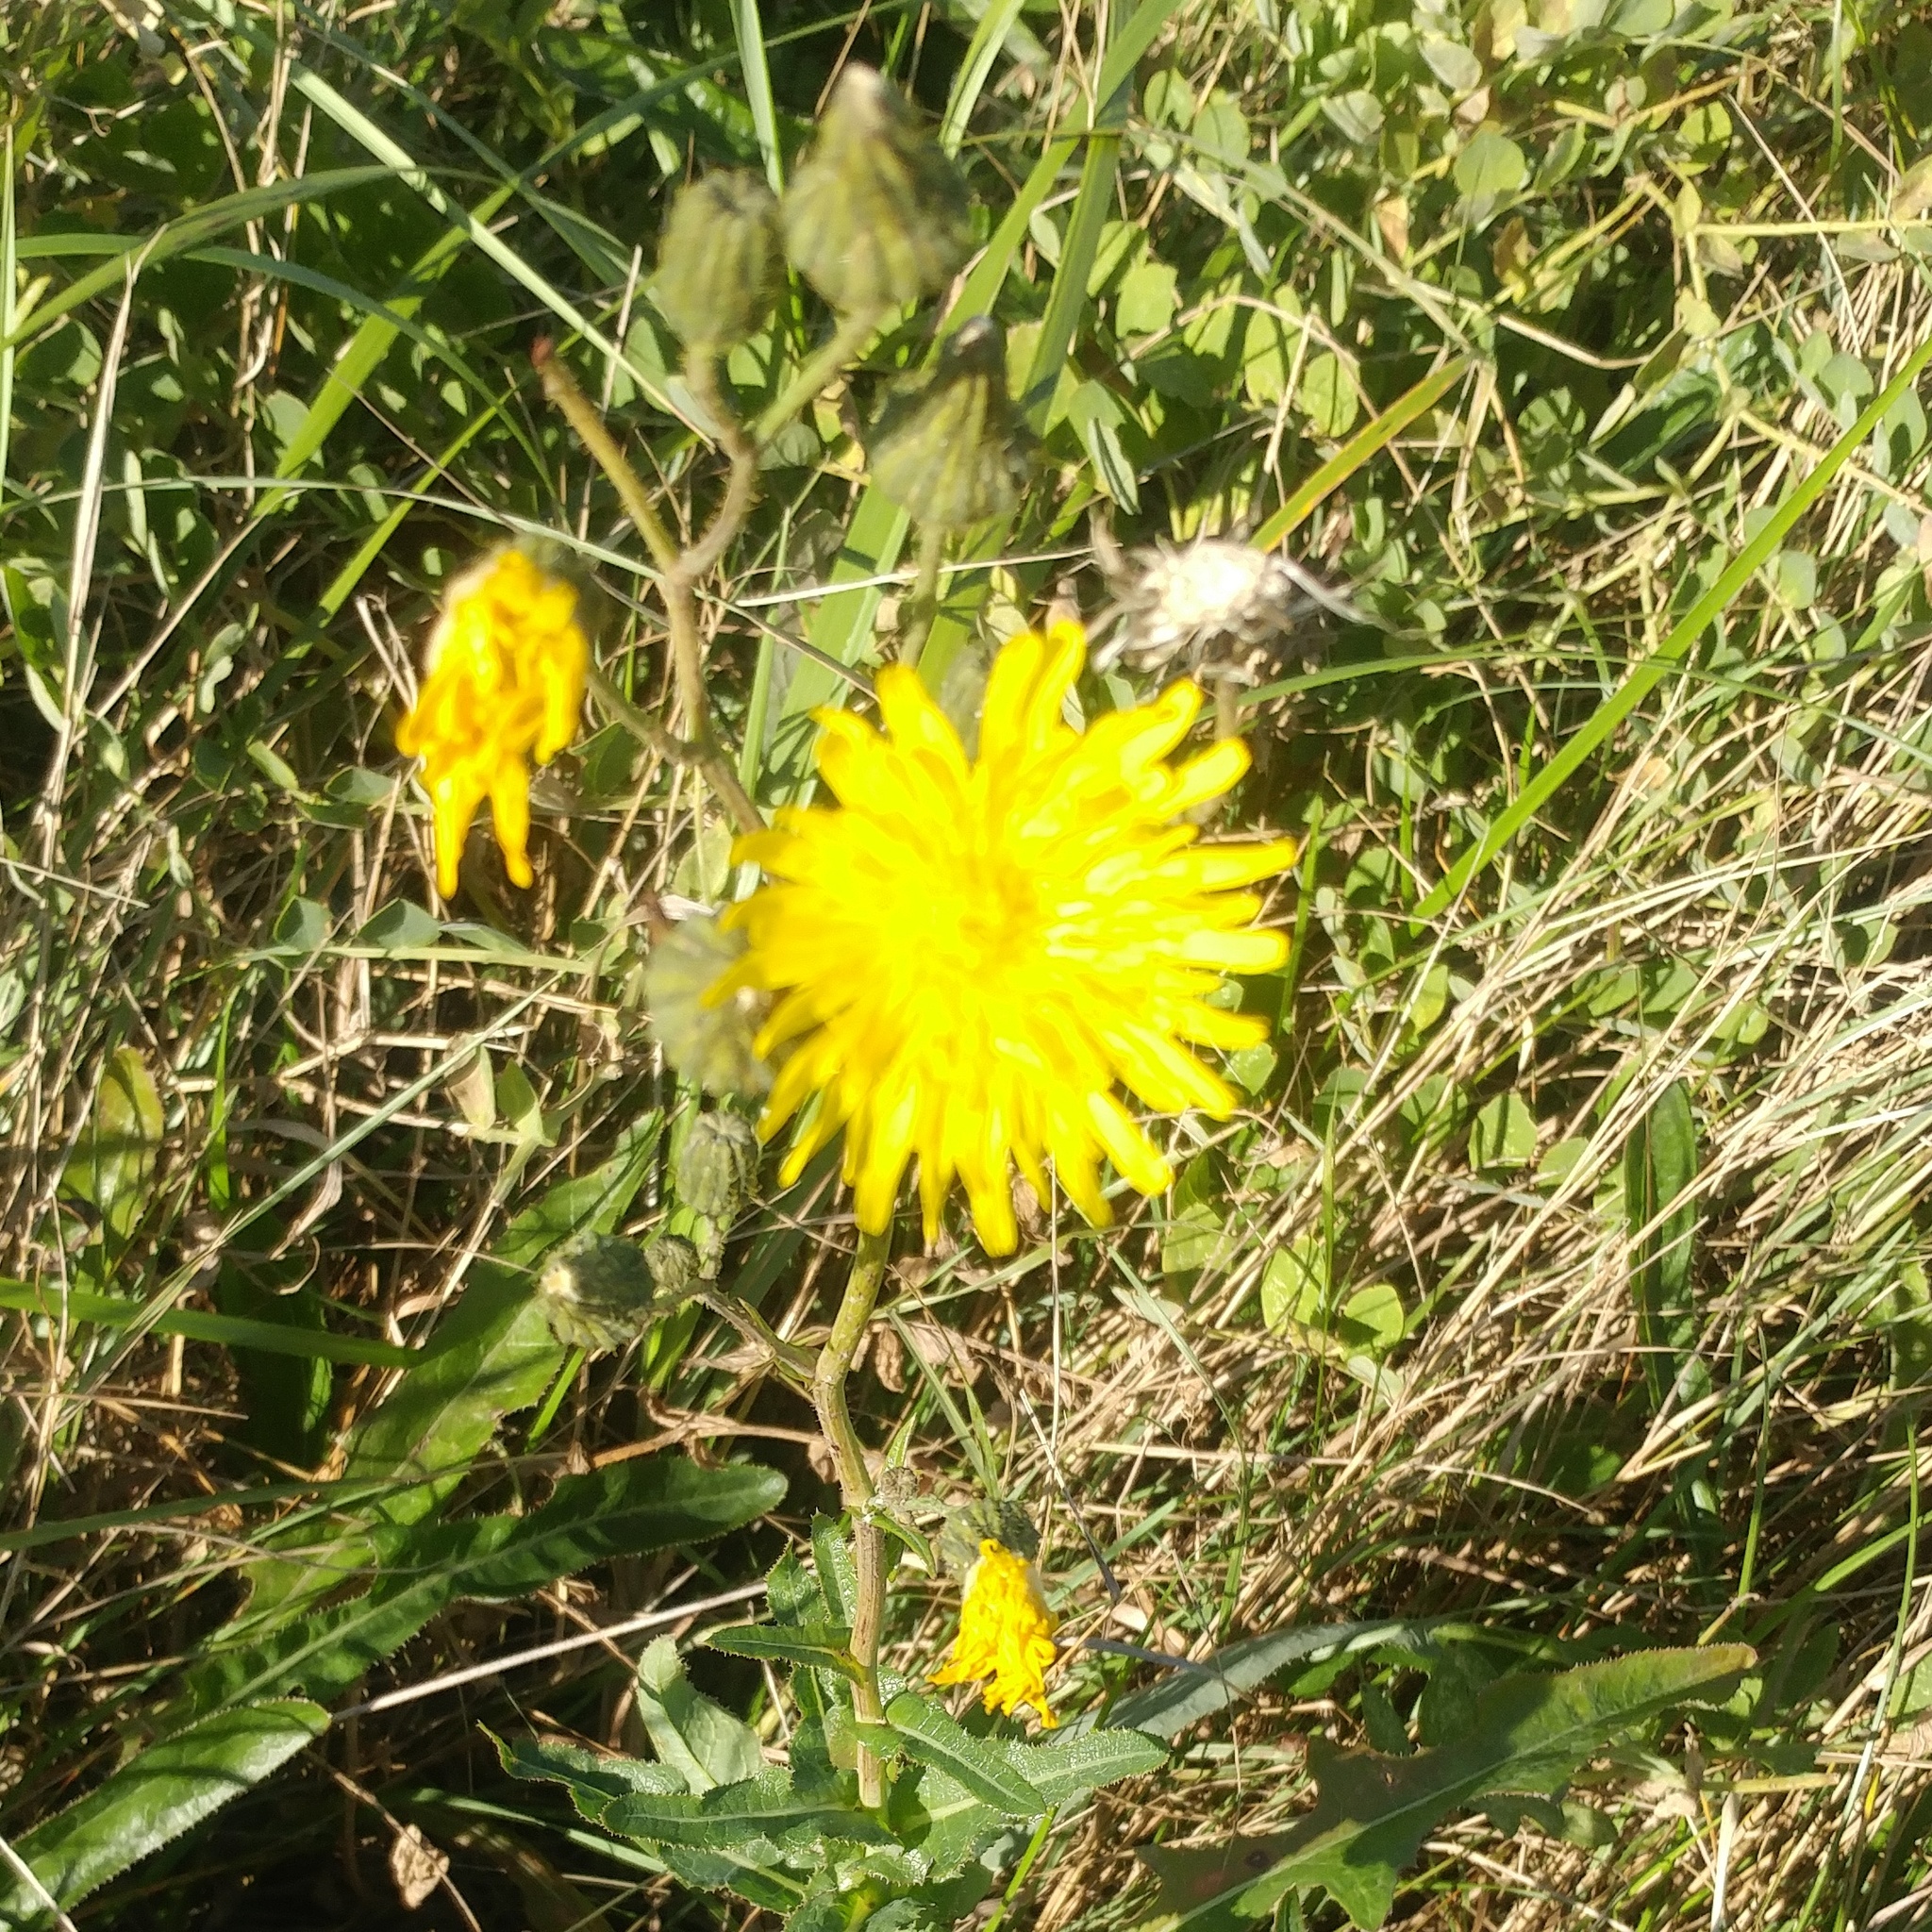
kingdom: Plantae
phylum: Tracheophyta
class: Magnoliopsida
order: Asterales
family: Asteraceae
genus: Sonchus
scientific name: Sonchus arvensis
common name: Perennial sow-thistle
